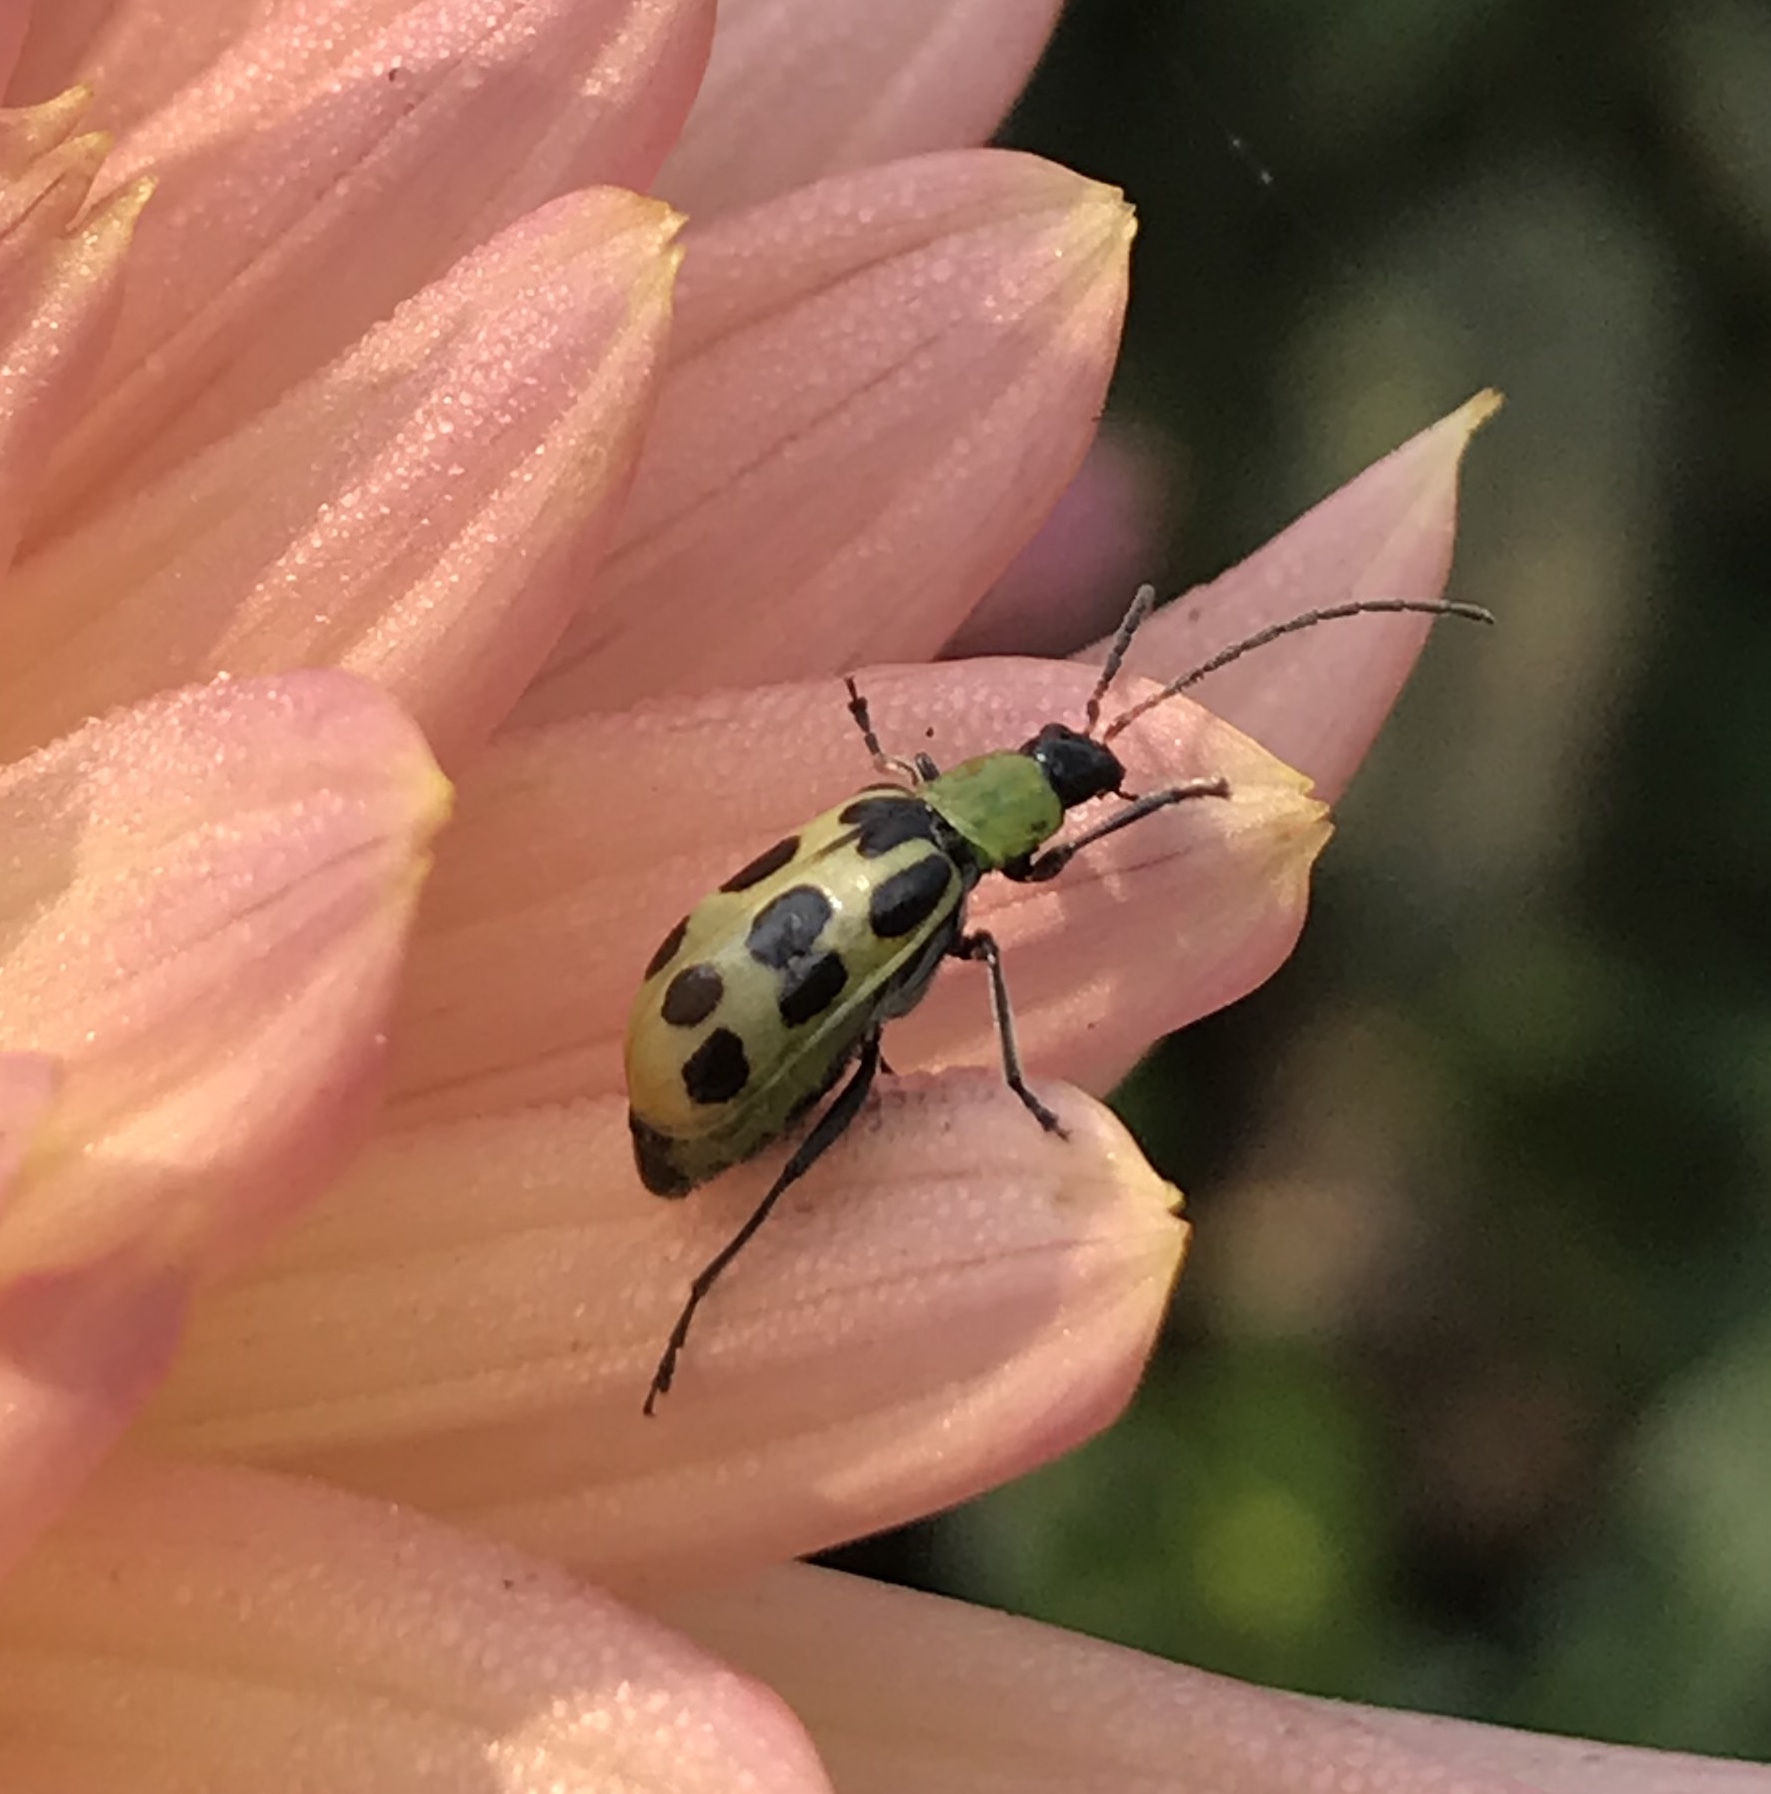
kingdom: Animalia
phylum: Arthropoda
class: Insecta
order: Coleoptera
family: Chrysomelidae
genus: Diabrotica
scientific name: Diabrotica undecimpunctata
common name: Spotted cucumber beetle
